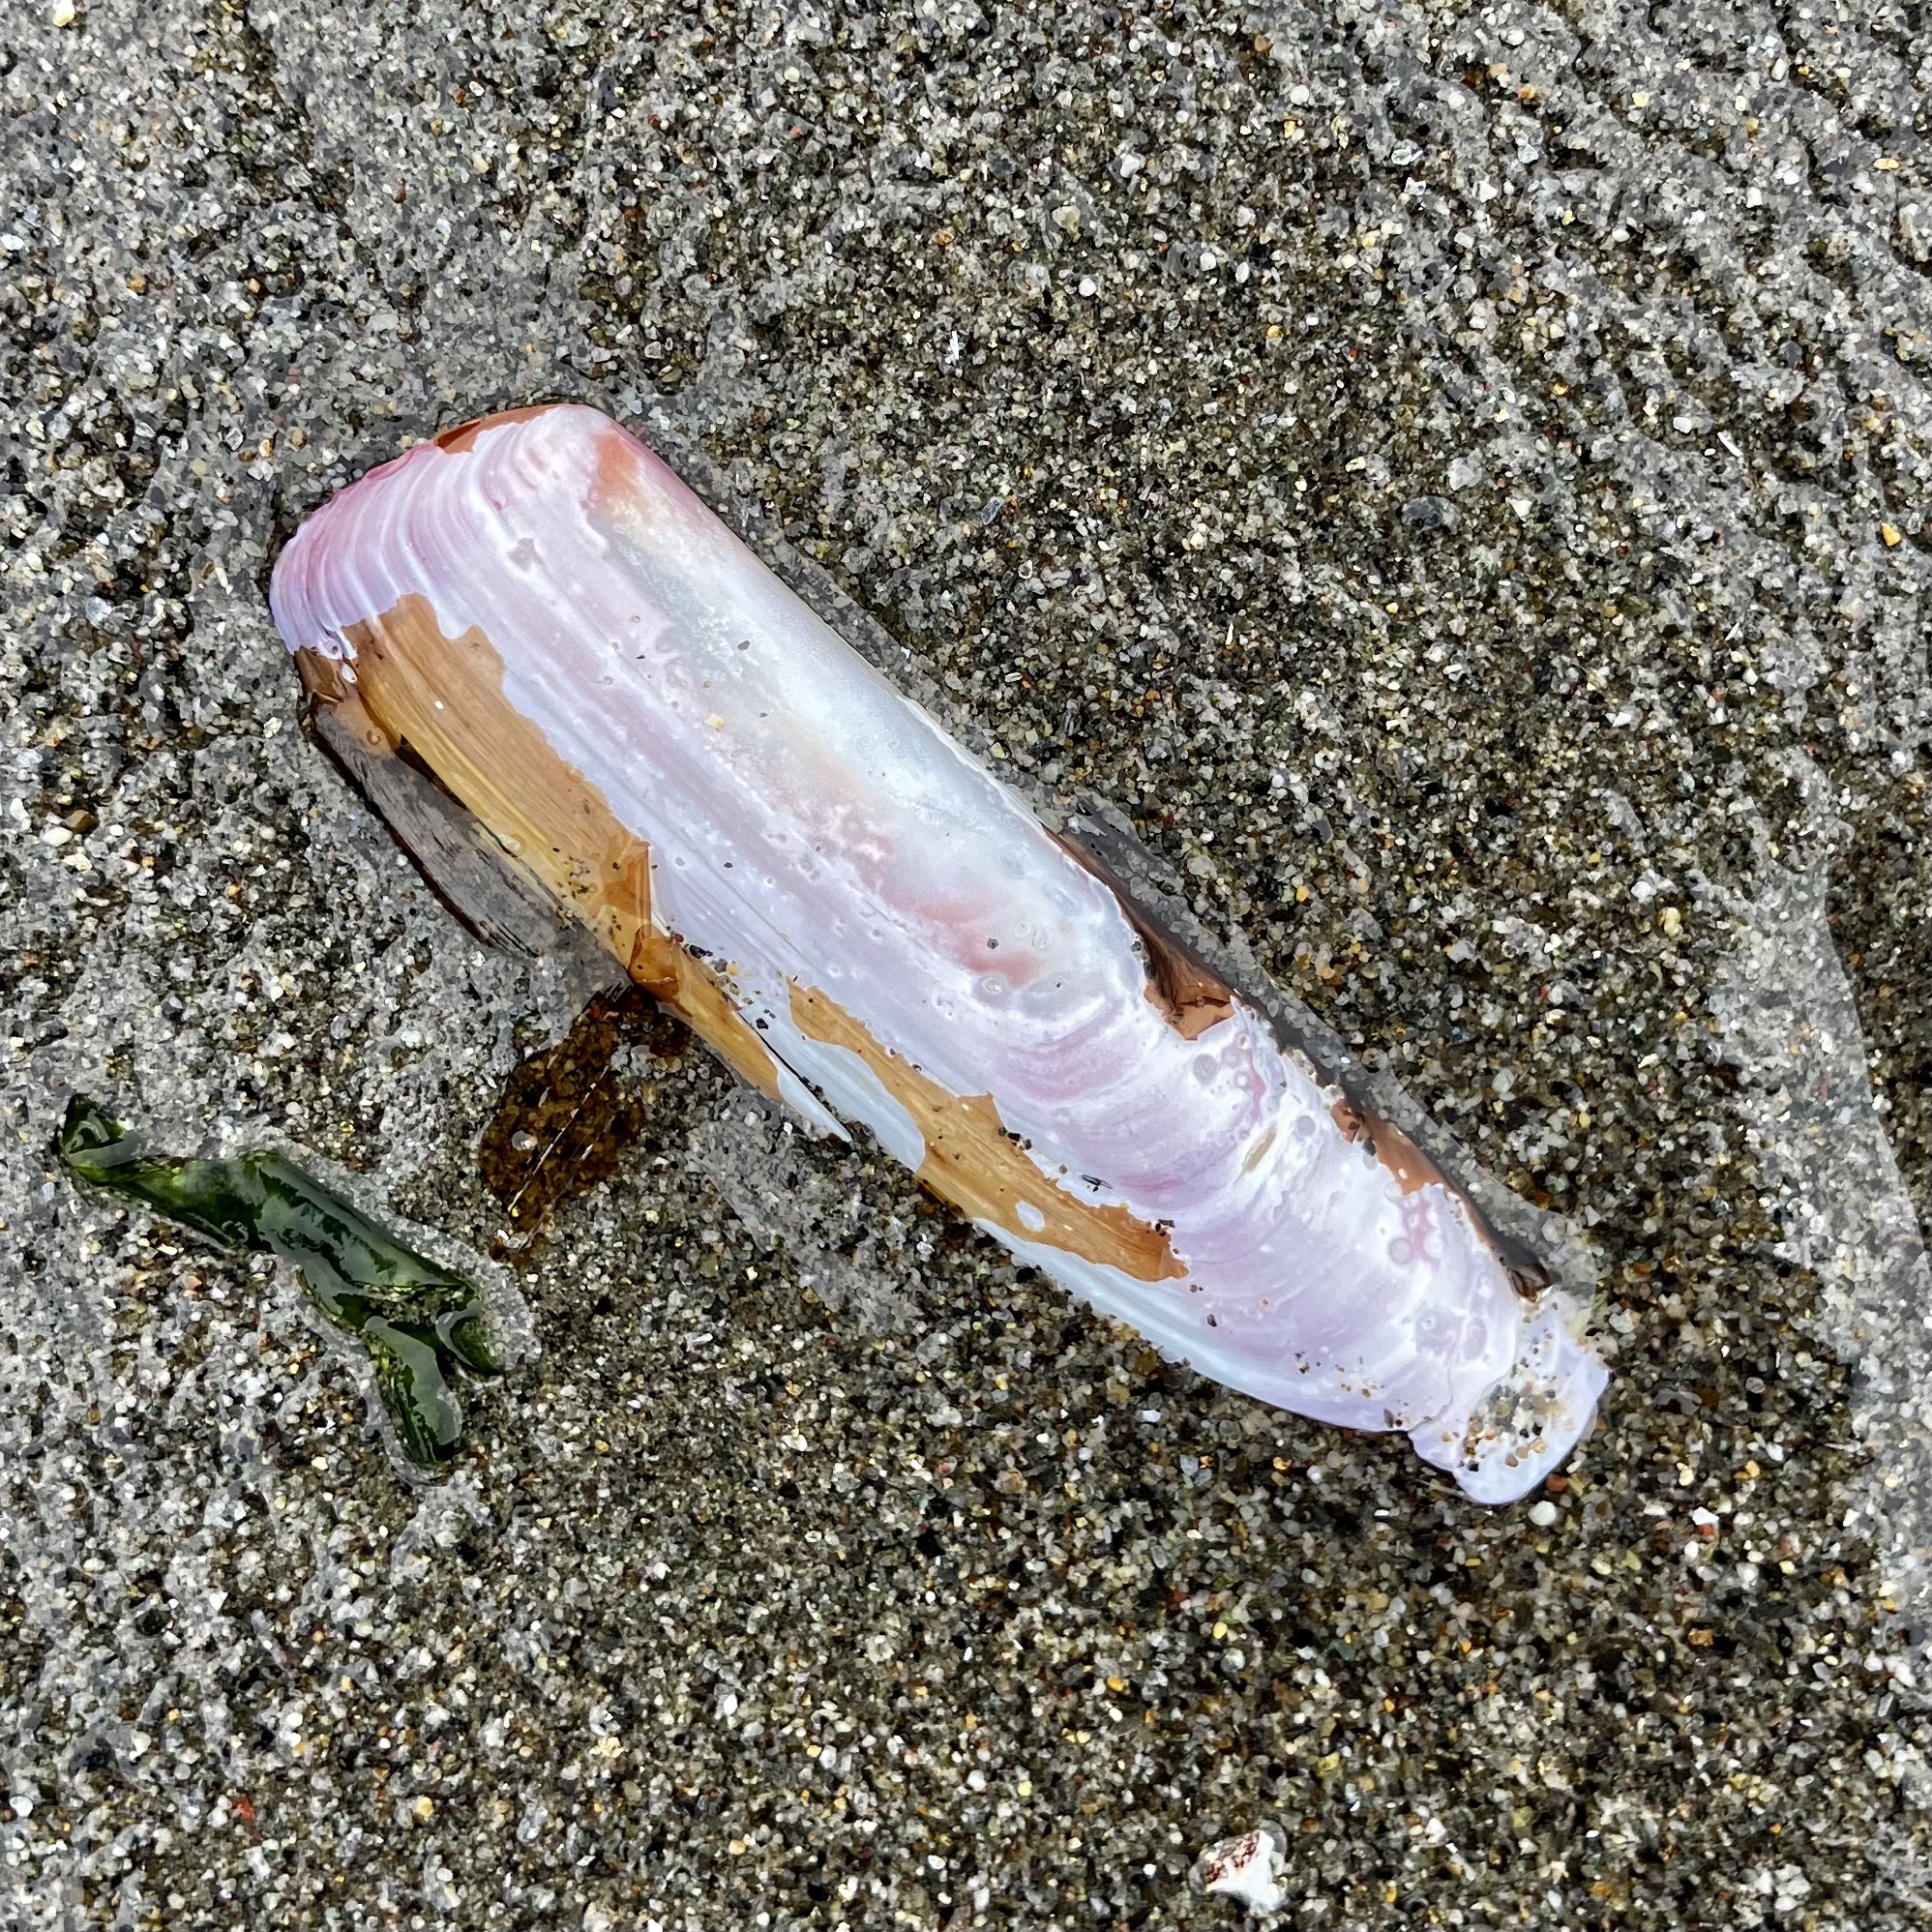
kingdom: Animalia
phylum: Mollusca
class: Bivalvia
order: Adapedonta
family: Solenidae
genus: Solen
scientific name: Solen sicarius
